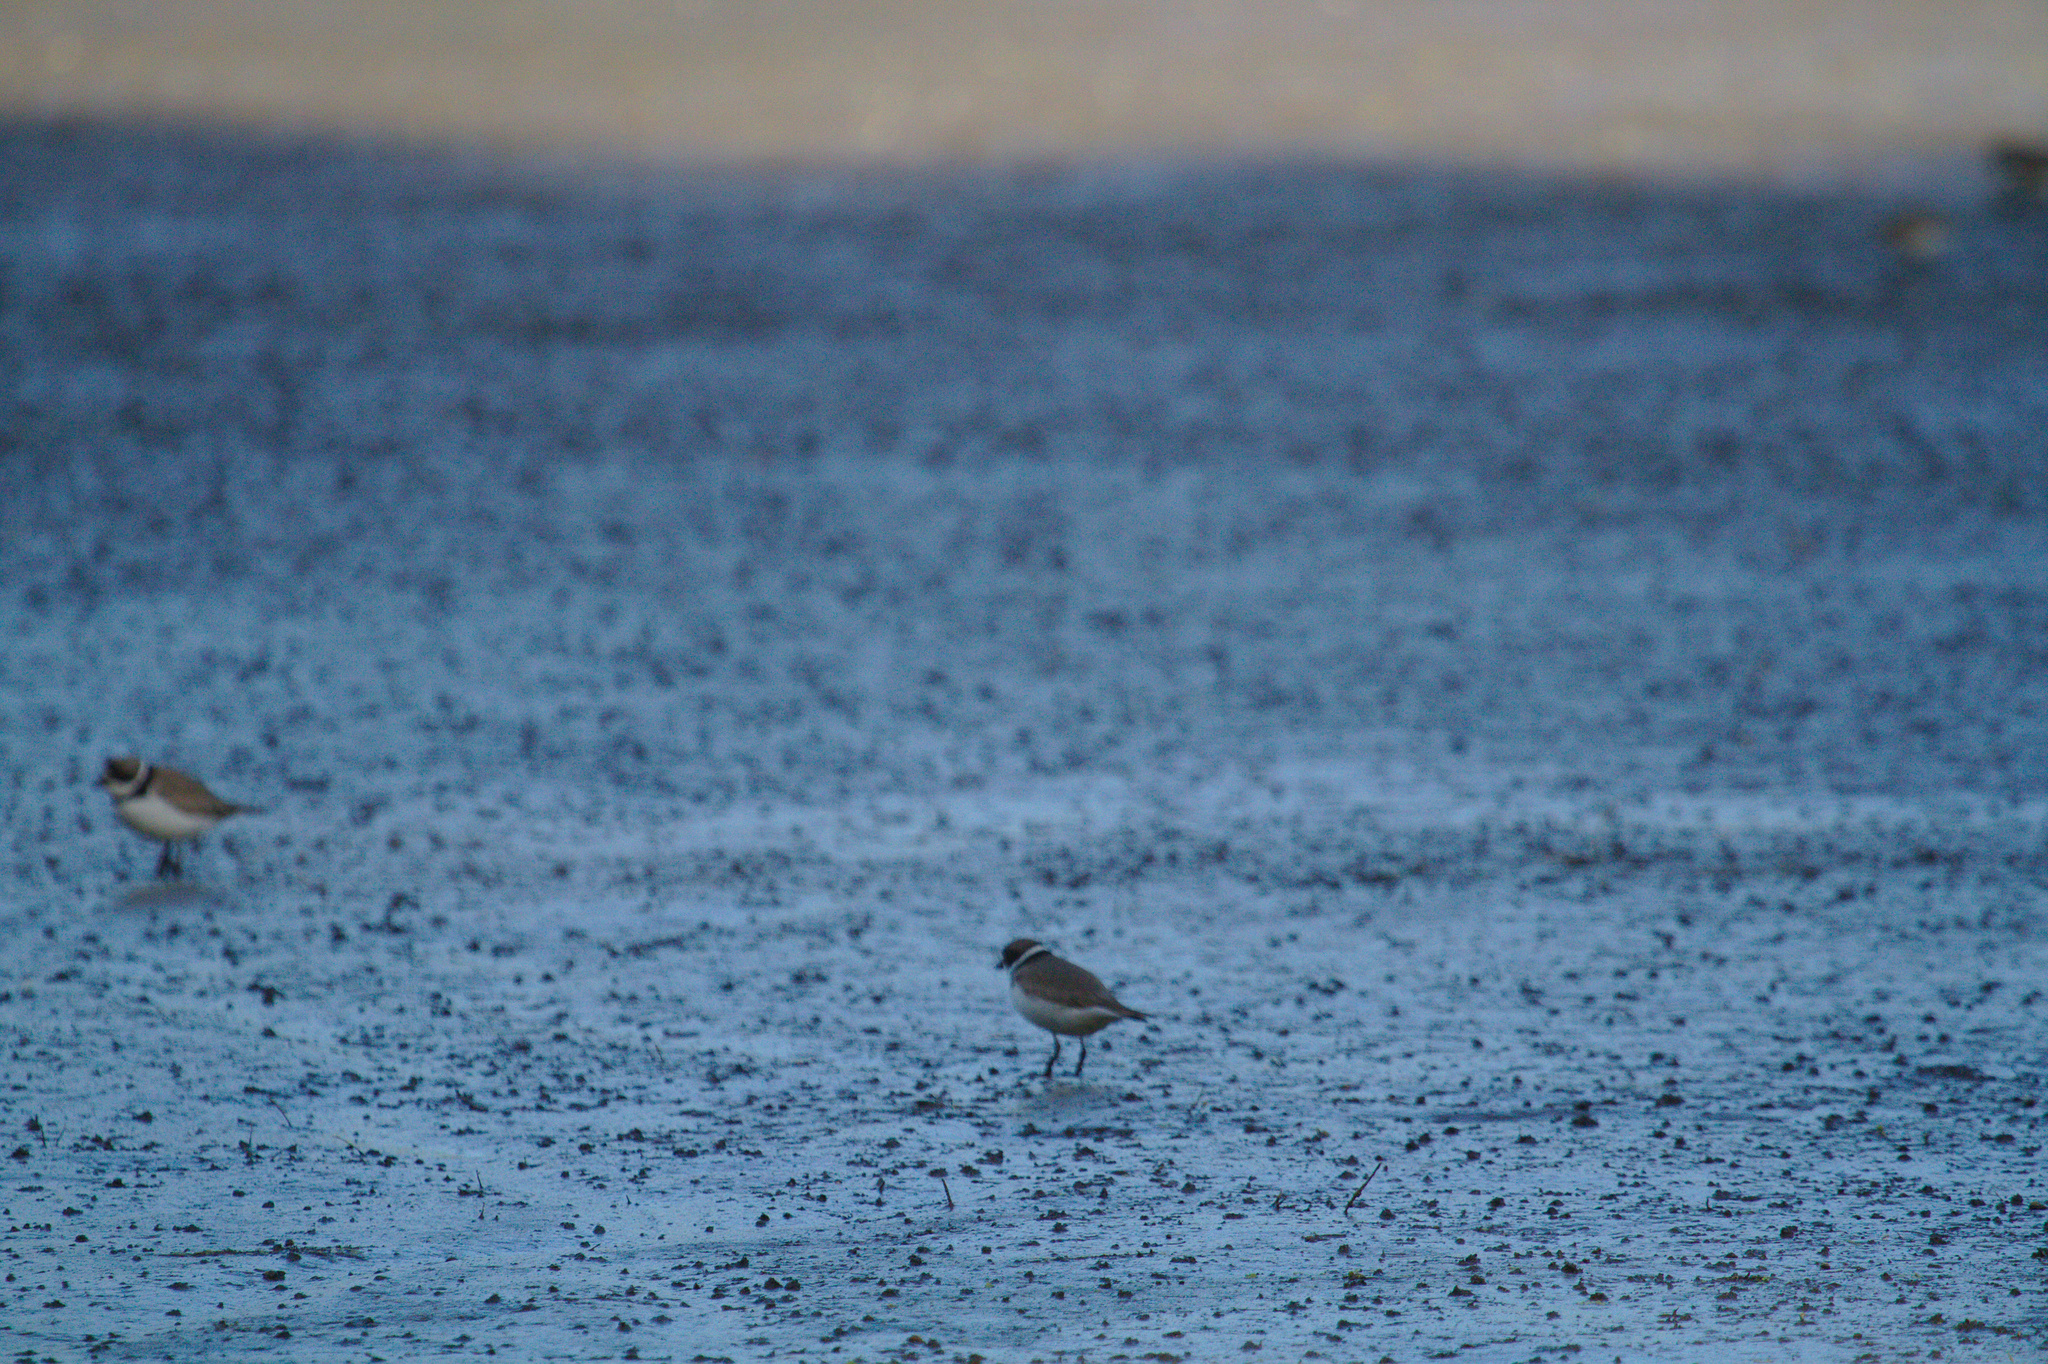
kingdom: Animalia
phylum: Chordata
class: Aves
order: Charadriiformes
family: Charadriidae
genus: Charadrius
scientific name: Charadrius semipalmatus
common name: Semipalmated plover
